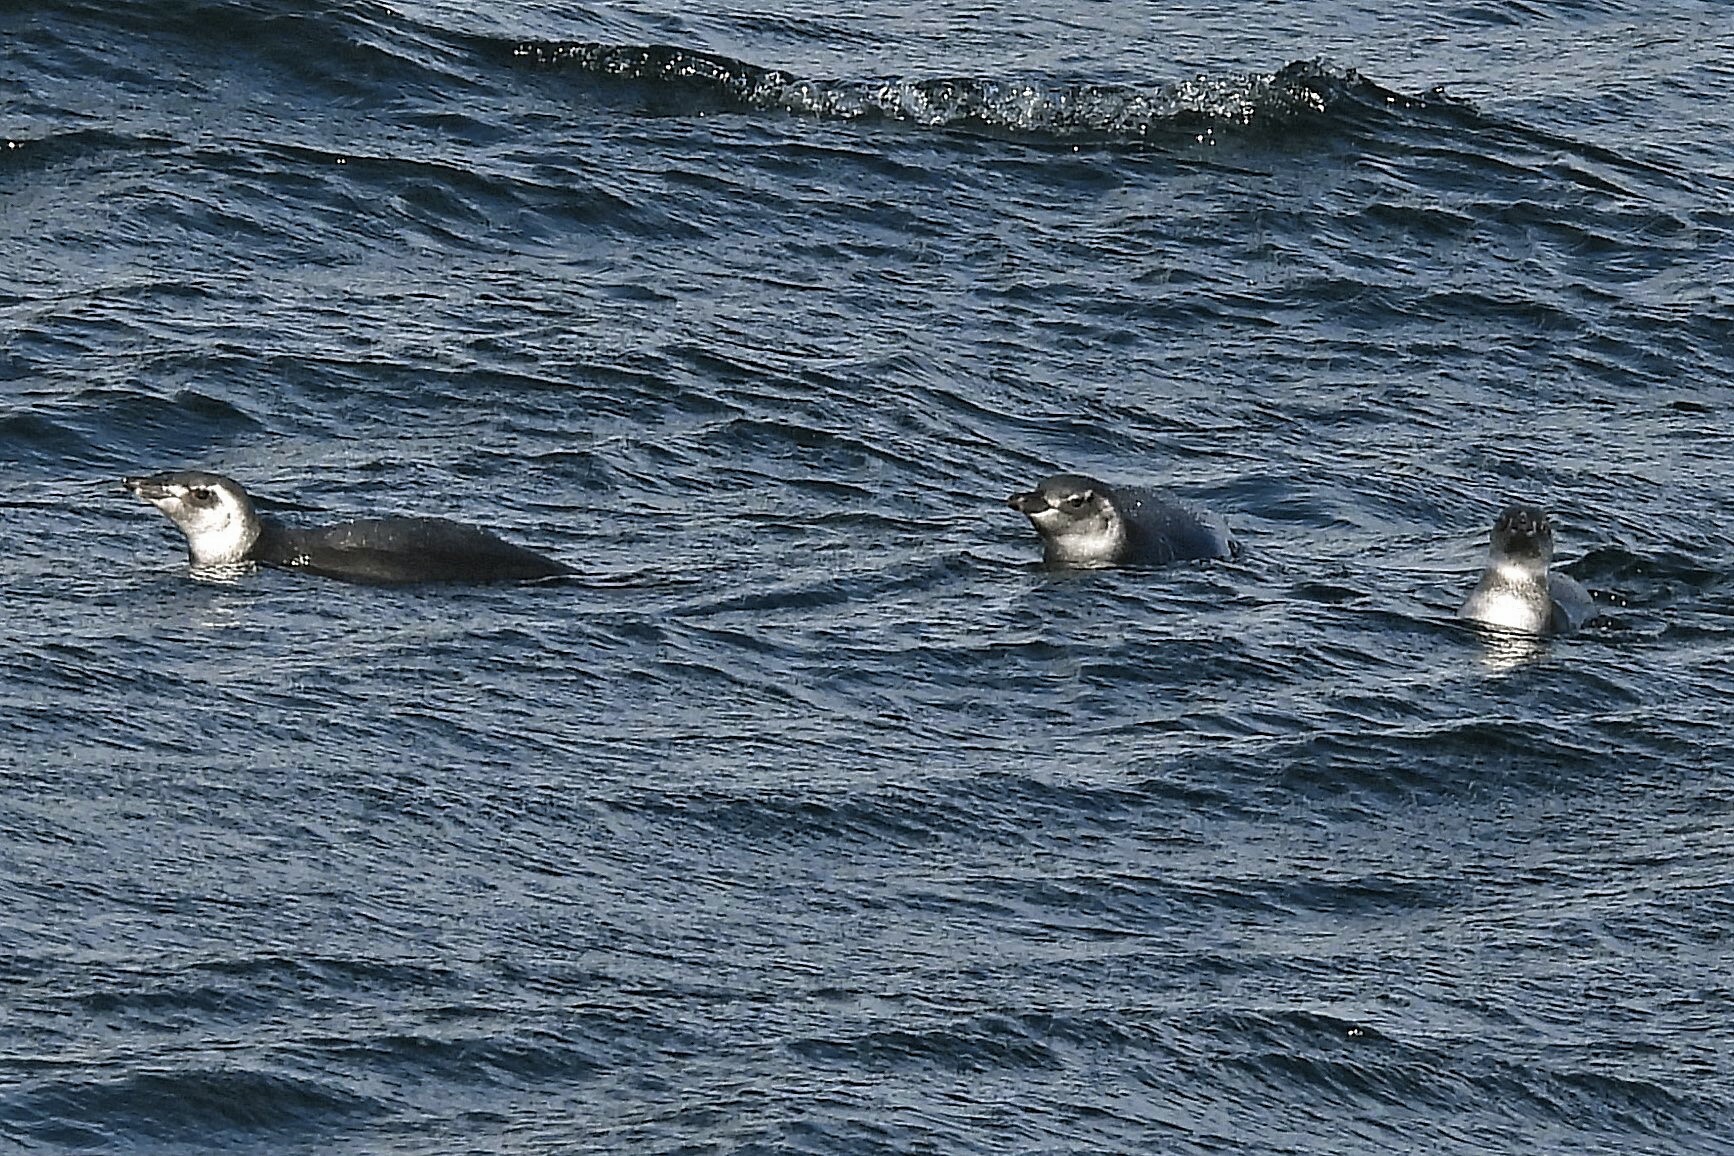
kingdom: Animalia
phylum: Chordata
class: Aves
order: Sphenisciformes
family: Spheniscidae
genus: Spheniscus
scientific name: Spheniscus magellanicus
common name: Magellanic penguin
